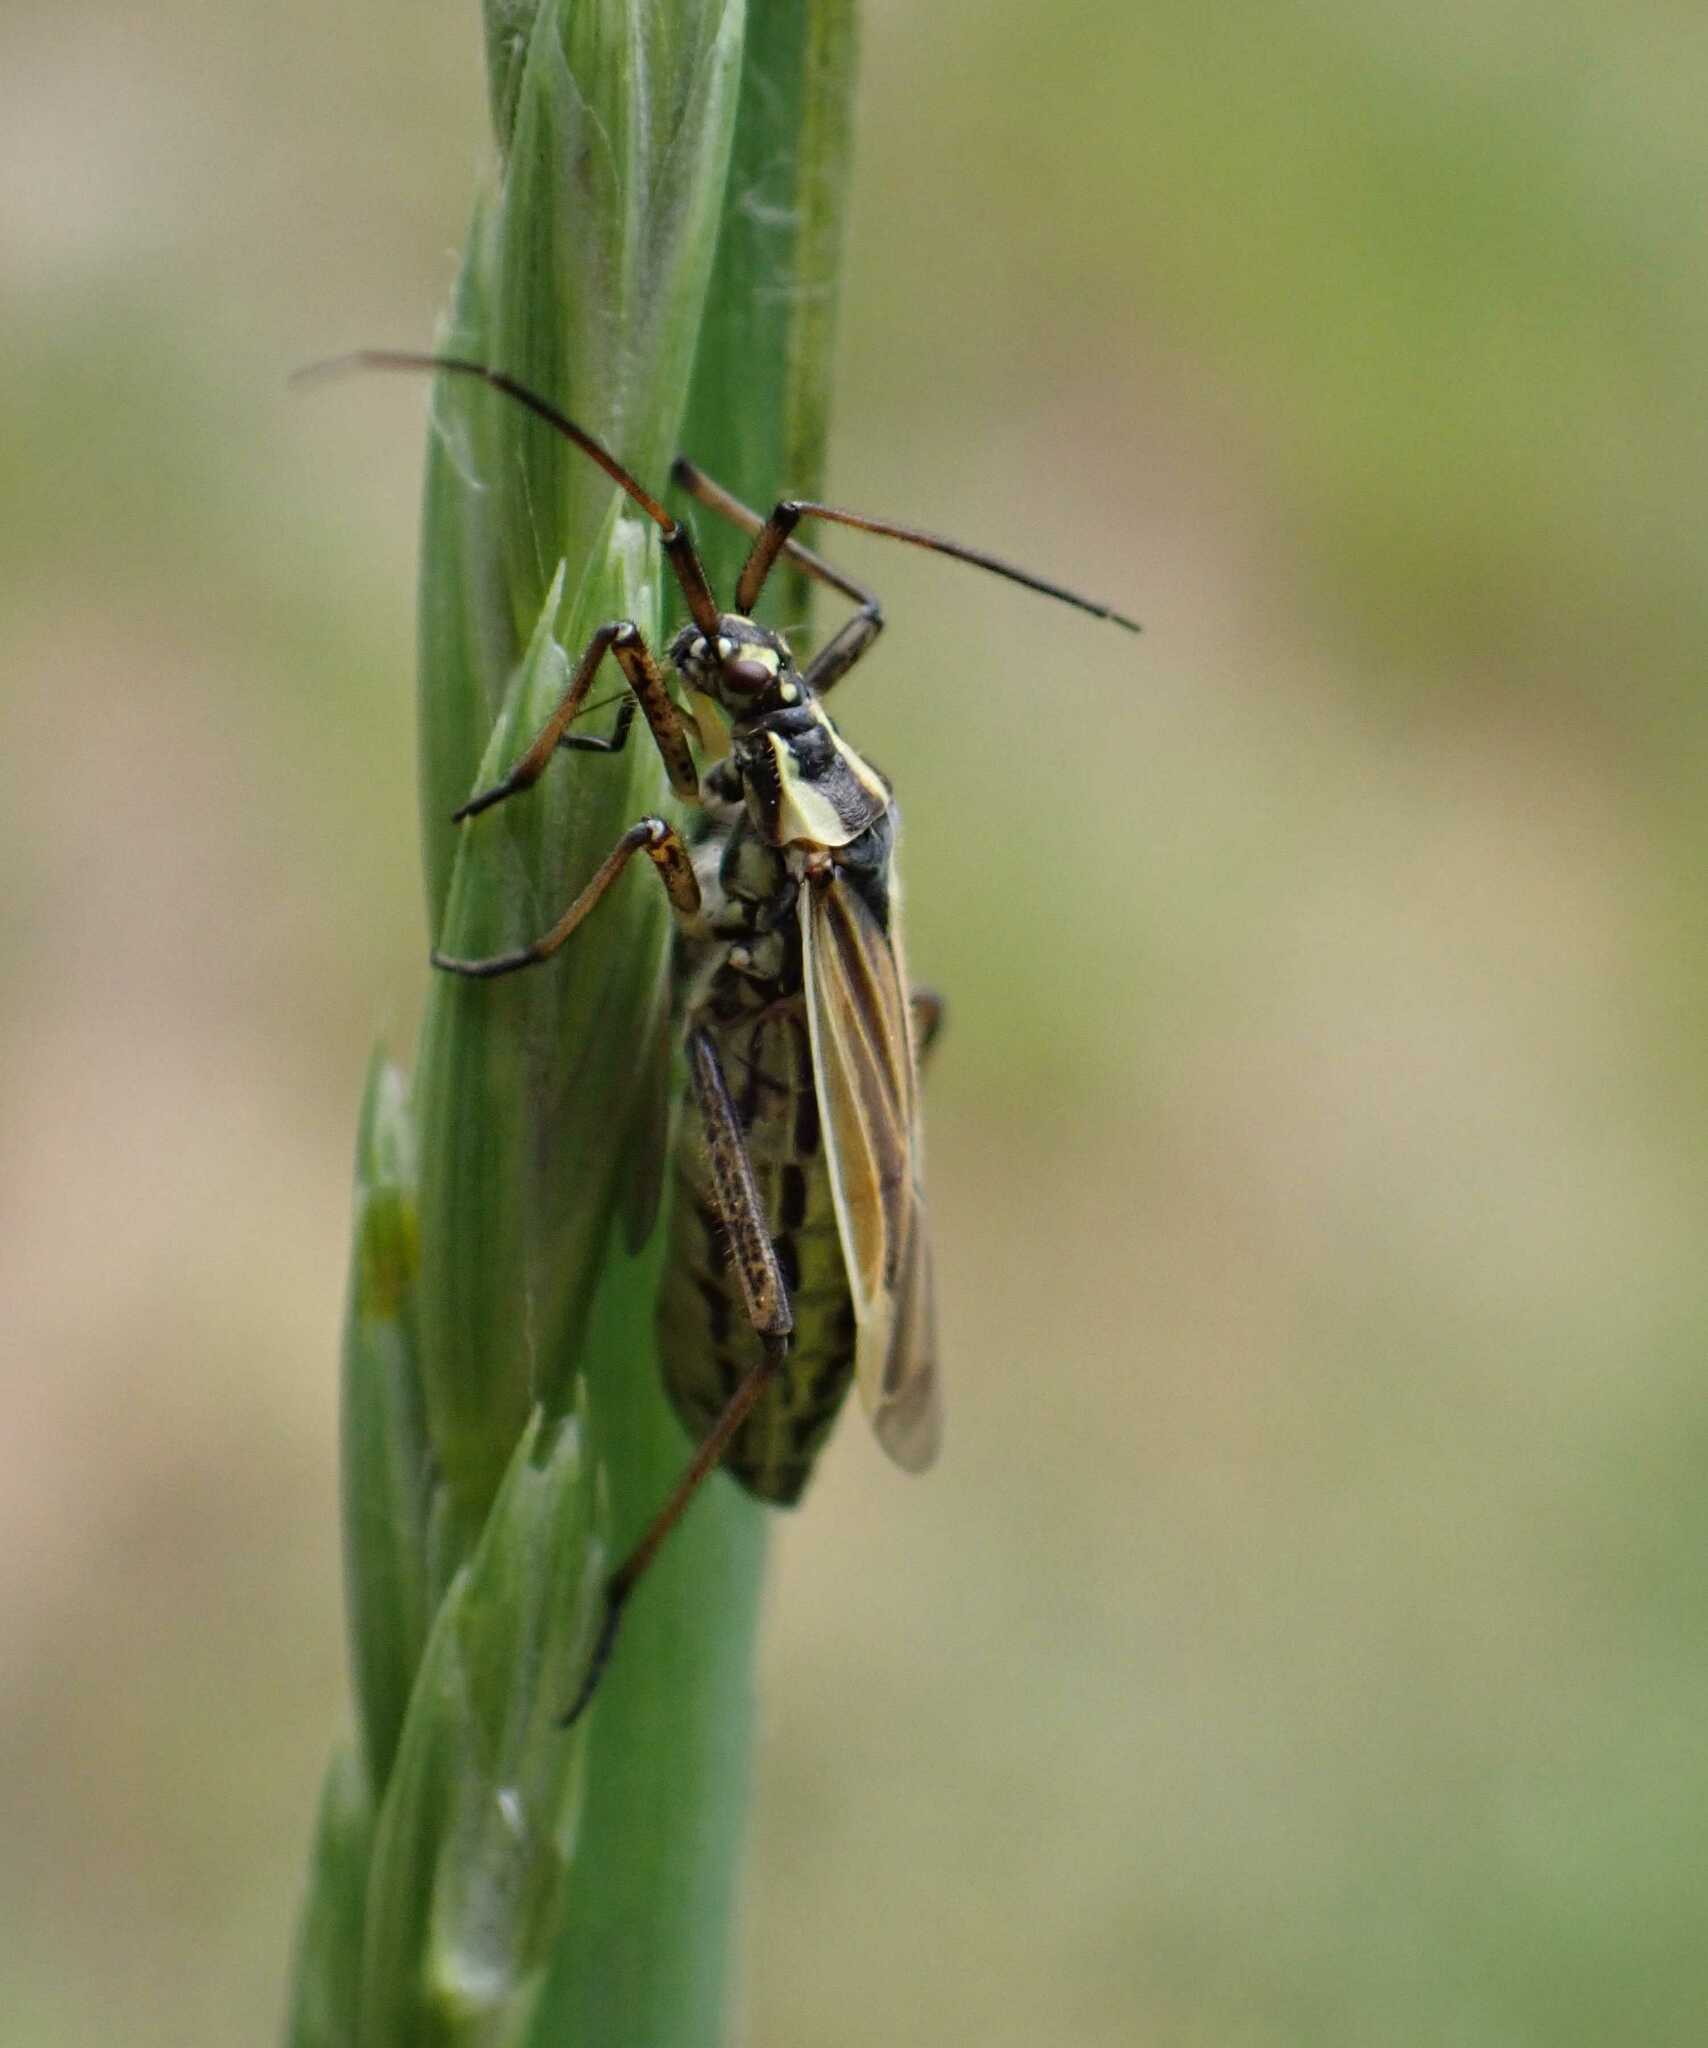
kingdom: Animalia
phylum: Arthropoda
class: Insecta
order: Hemiptera
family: Miridae
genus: Leptopterna
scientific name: Leptopterna dolabrata
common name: Meadow plant bug
